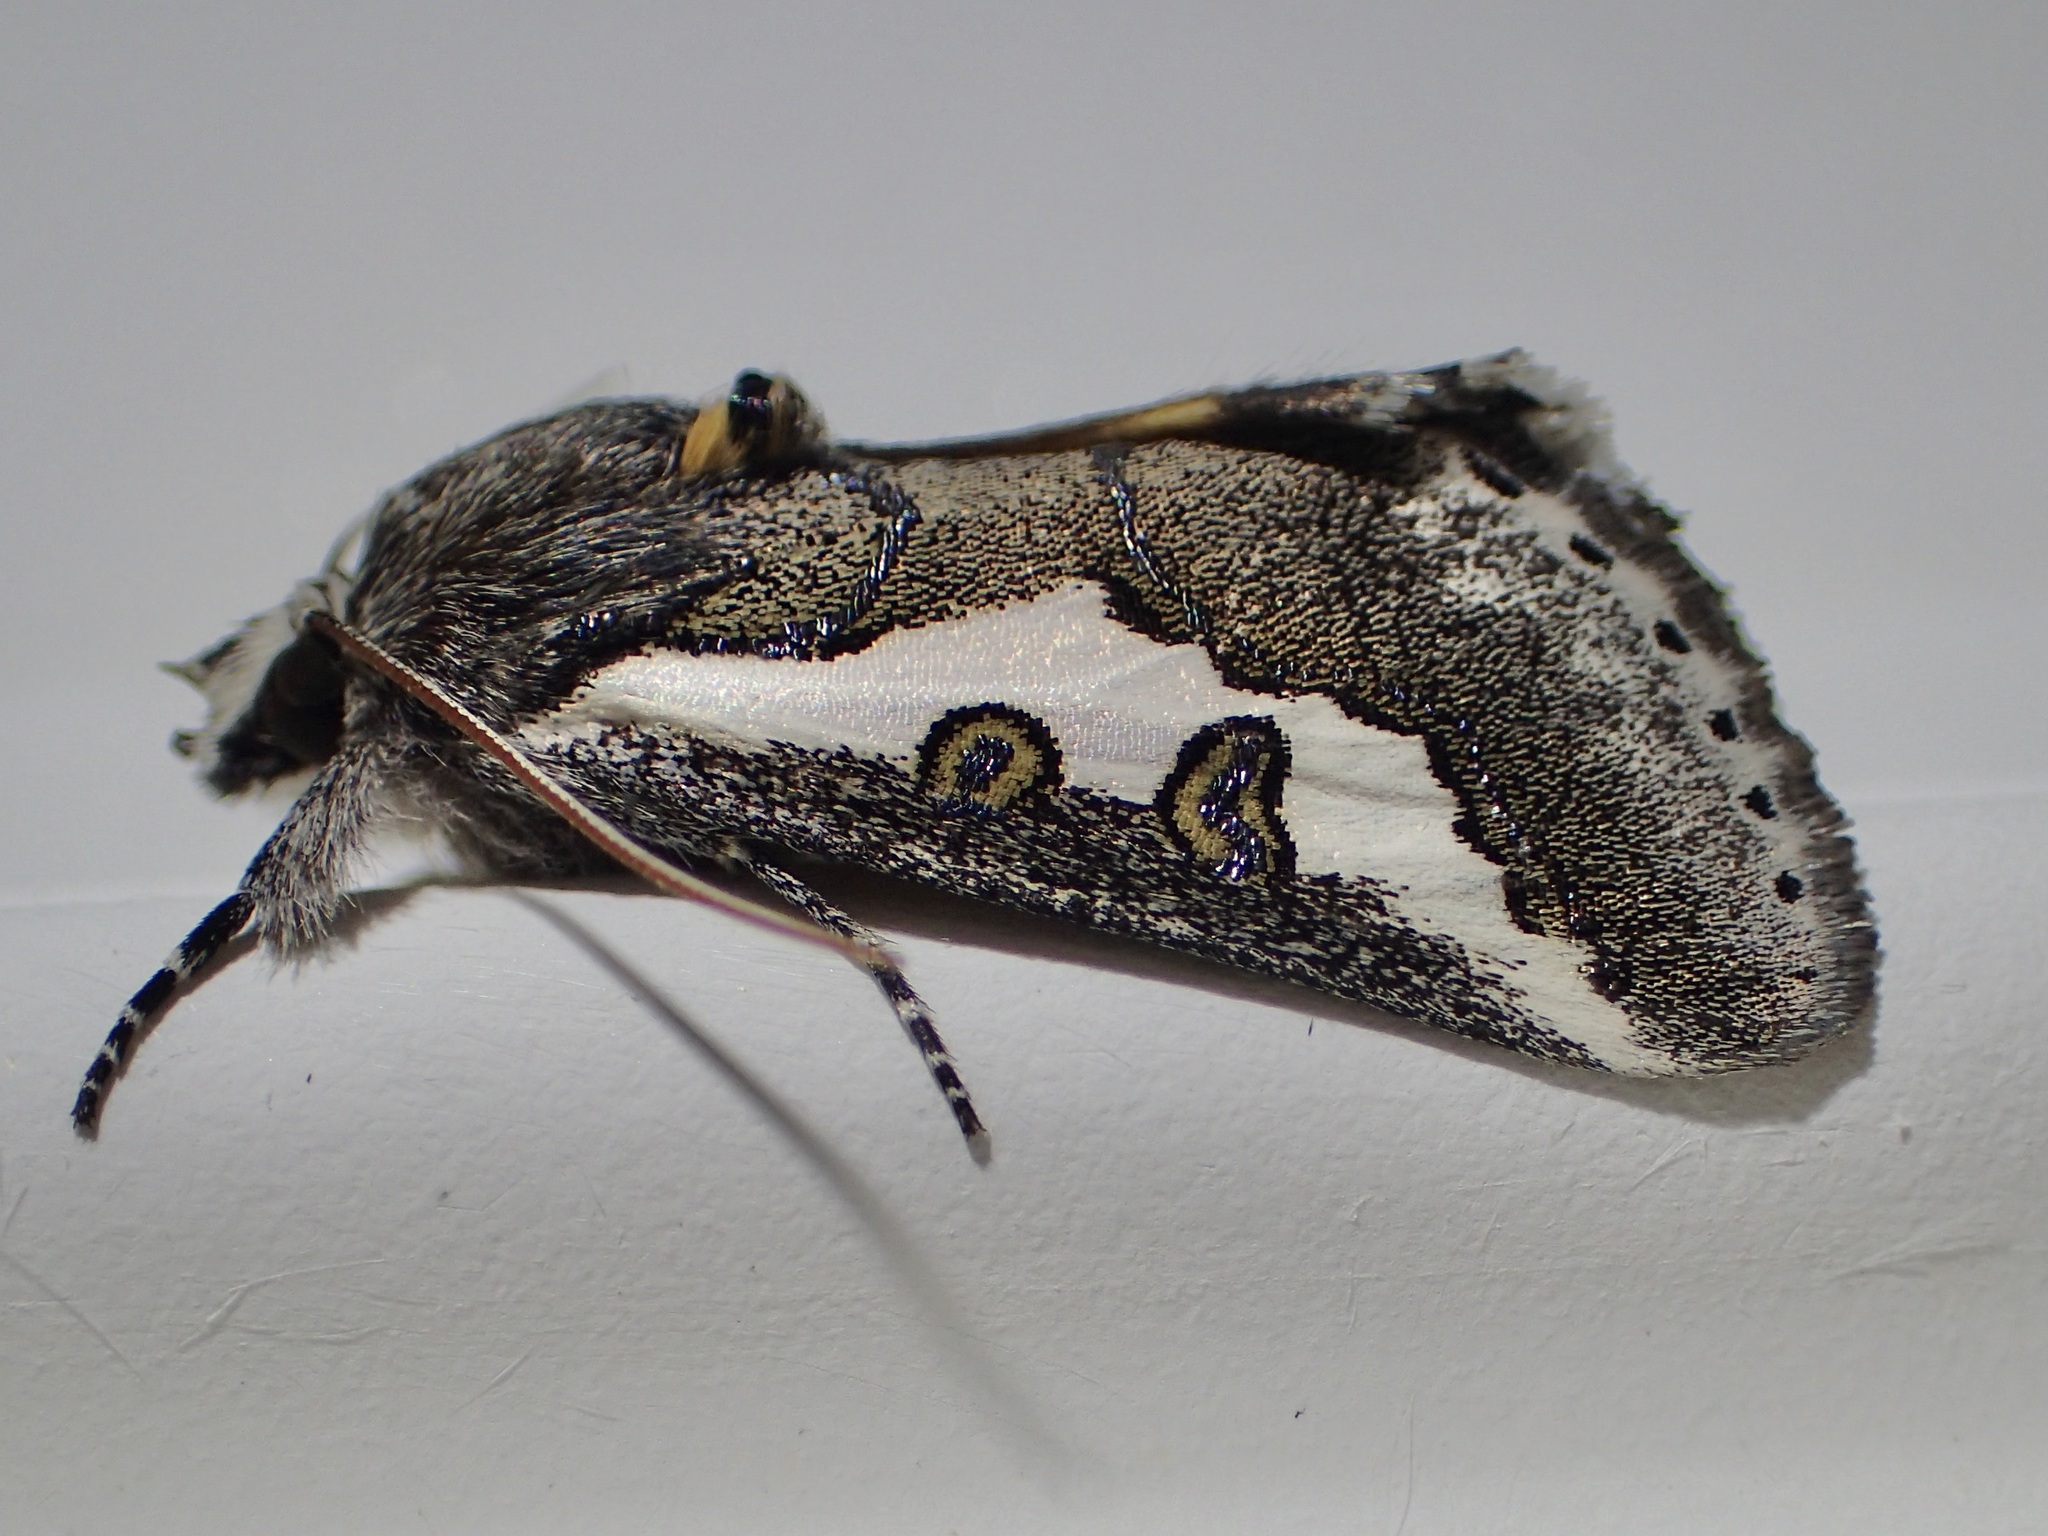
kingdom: Animalia
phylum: Arthropoda
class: Insecta
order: Lepidoptera
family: Noctuidae
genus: Euscirrhopterus
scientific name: Euscirrhopterus gloveri
